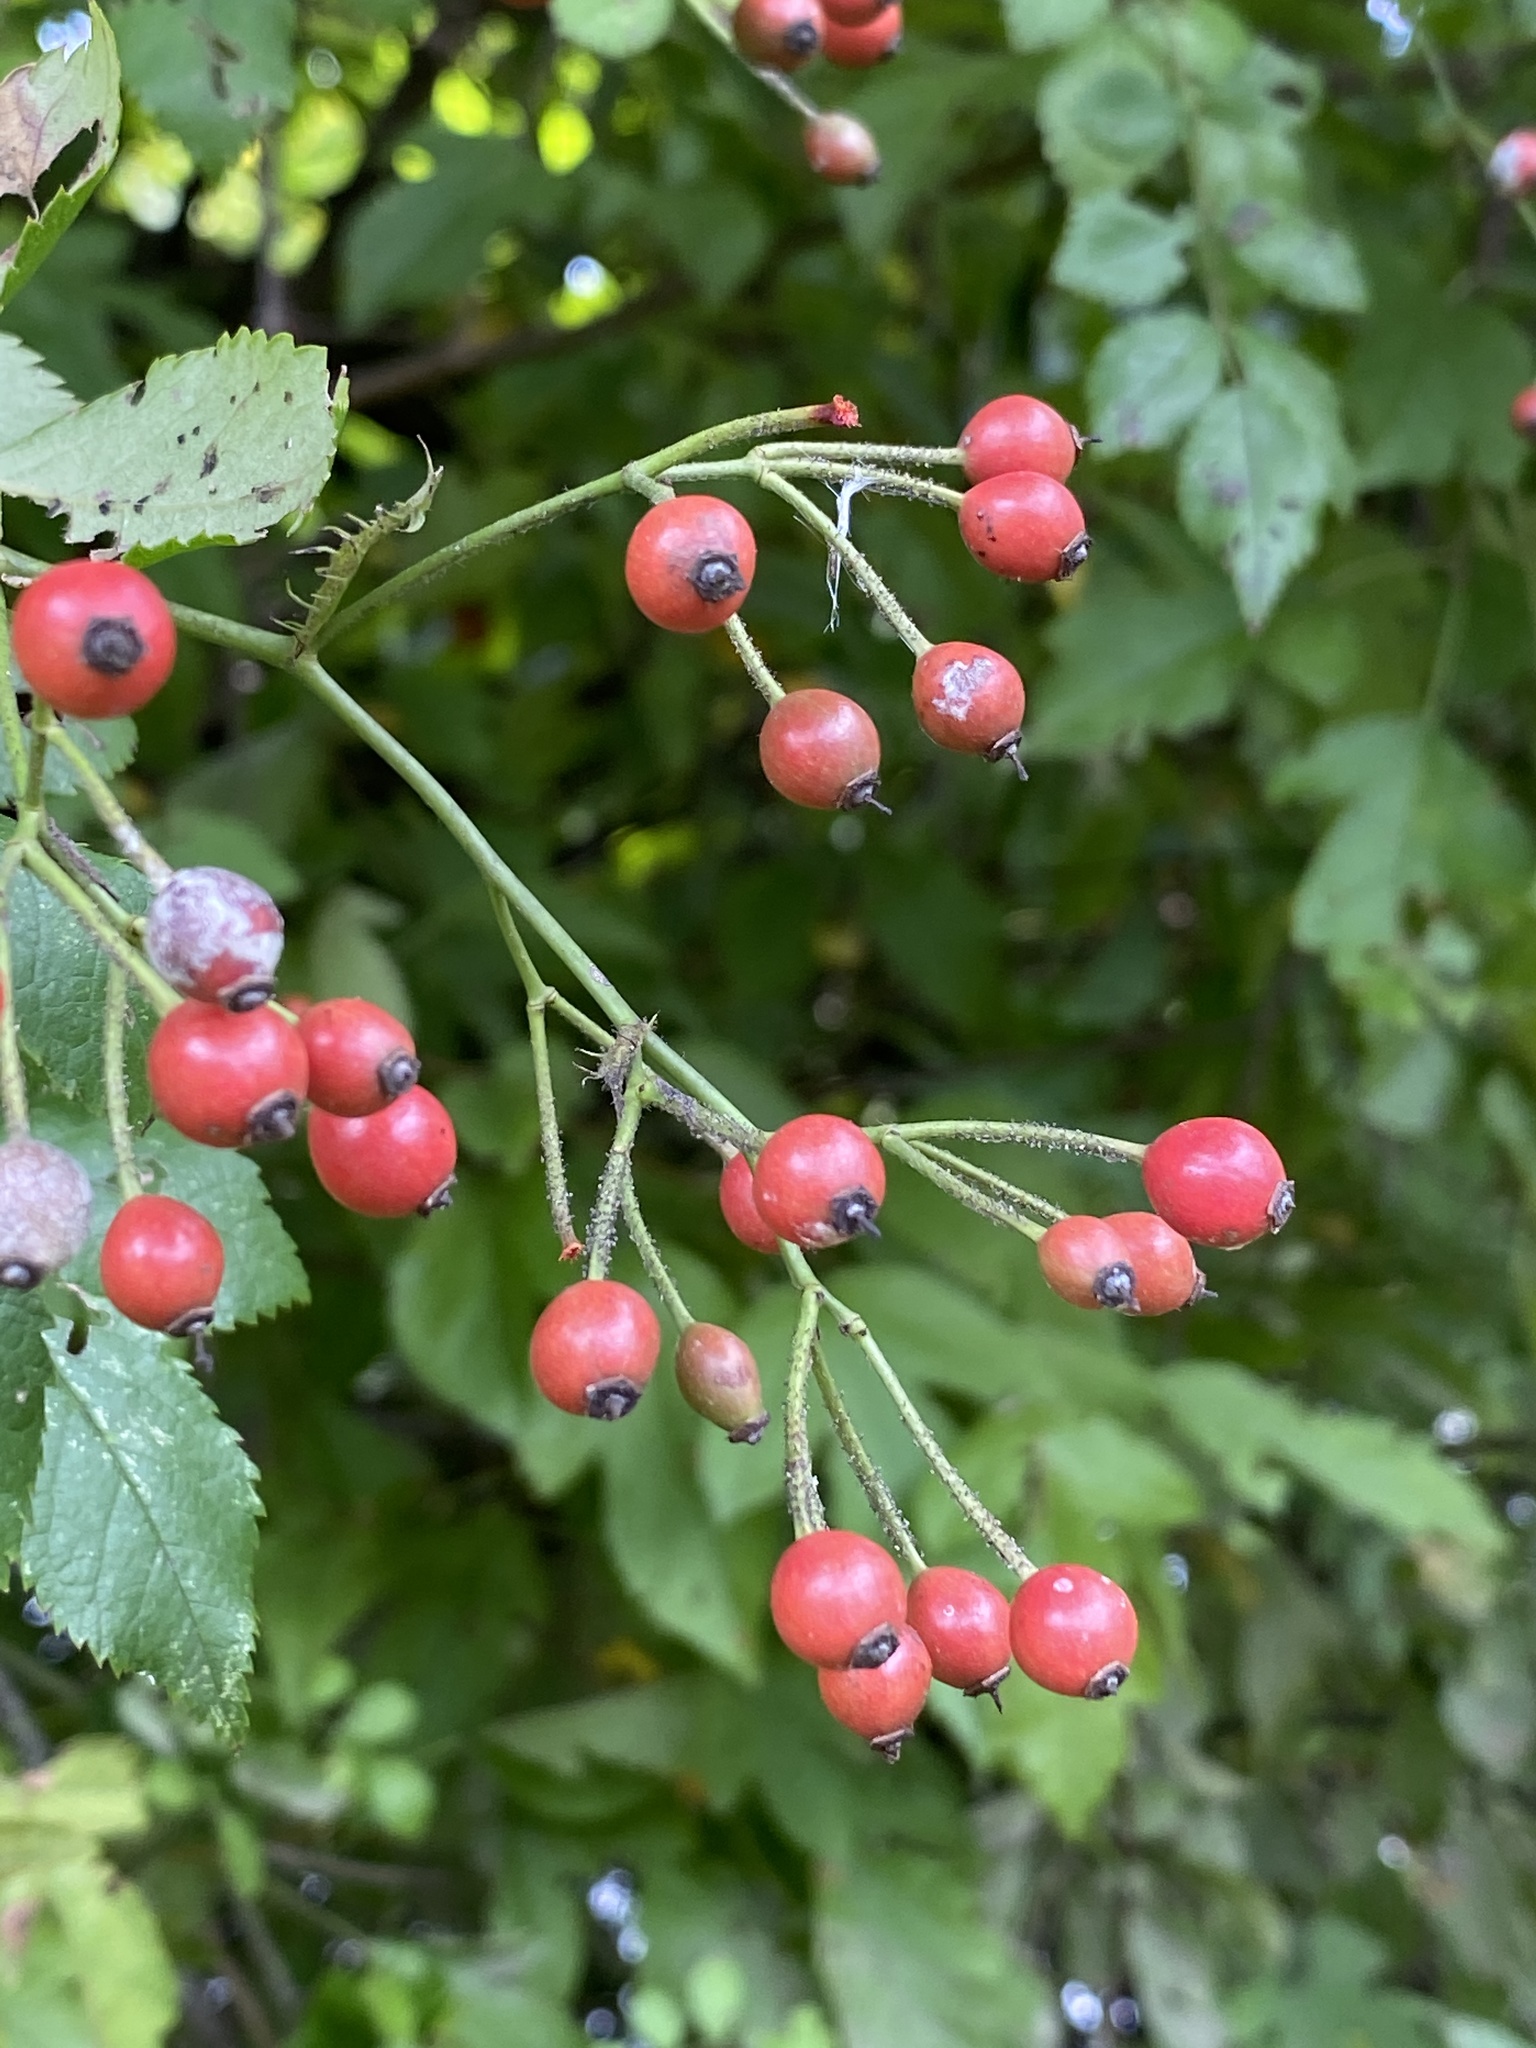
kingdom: Plantae
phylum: Tracheophyta
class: Magnoliopsida
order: Rosales
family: Rosaceae
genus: Rosa
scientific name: Rosa multiflora
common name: Multiflora rose
